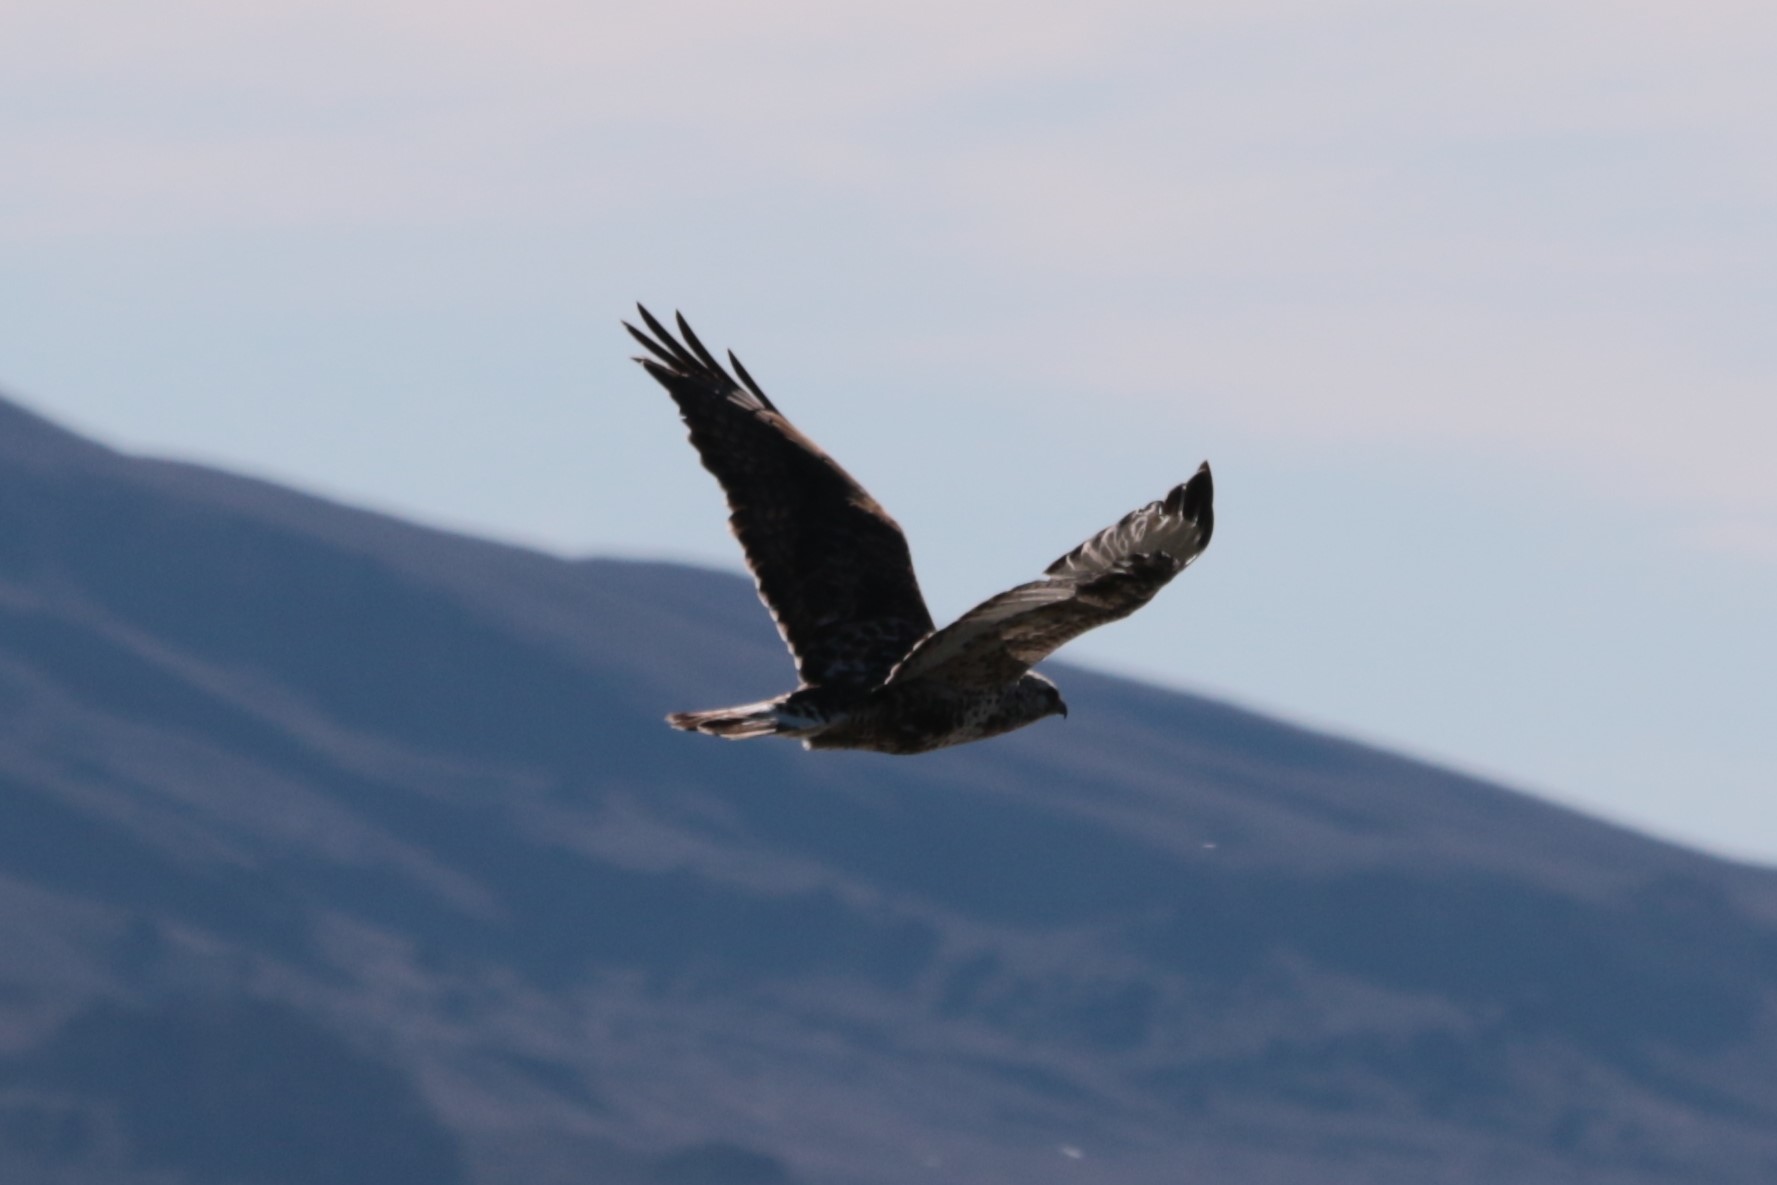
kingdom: Animalia
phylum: Chordata
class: Aves
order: Accipitriformes
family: Accipitridae
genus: Buteo
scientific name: Buteo lagopus
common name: Rough-legged buzzard
